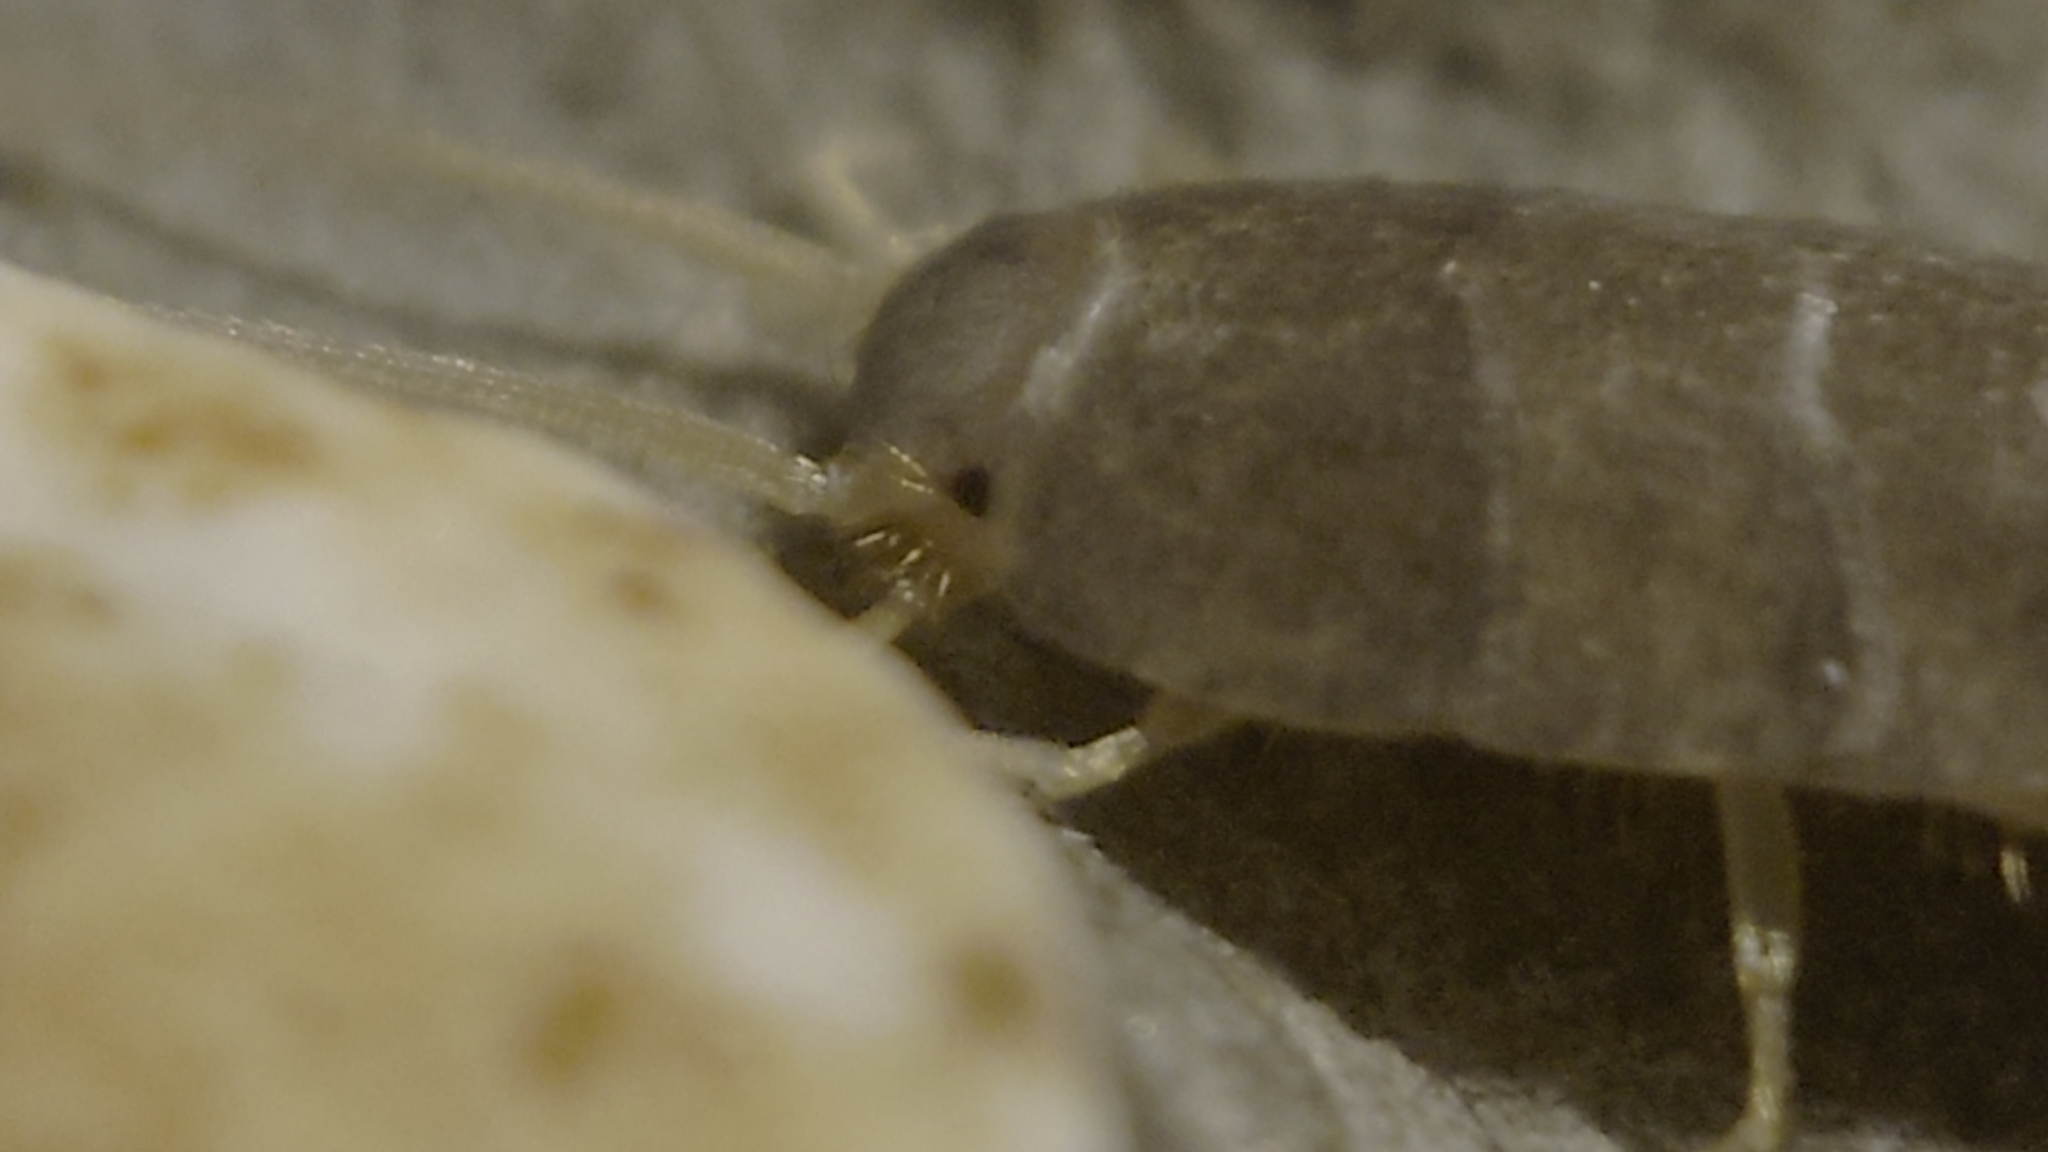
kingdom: Animalia
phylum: Arthropoda
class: Insecta
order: Zygentoma
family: Lepismatidae
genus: Lepisma
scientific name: Lepisma saccharinum
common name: Silverfish
